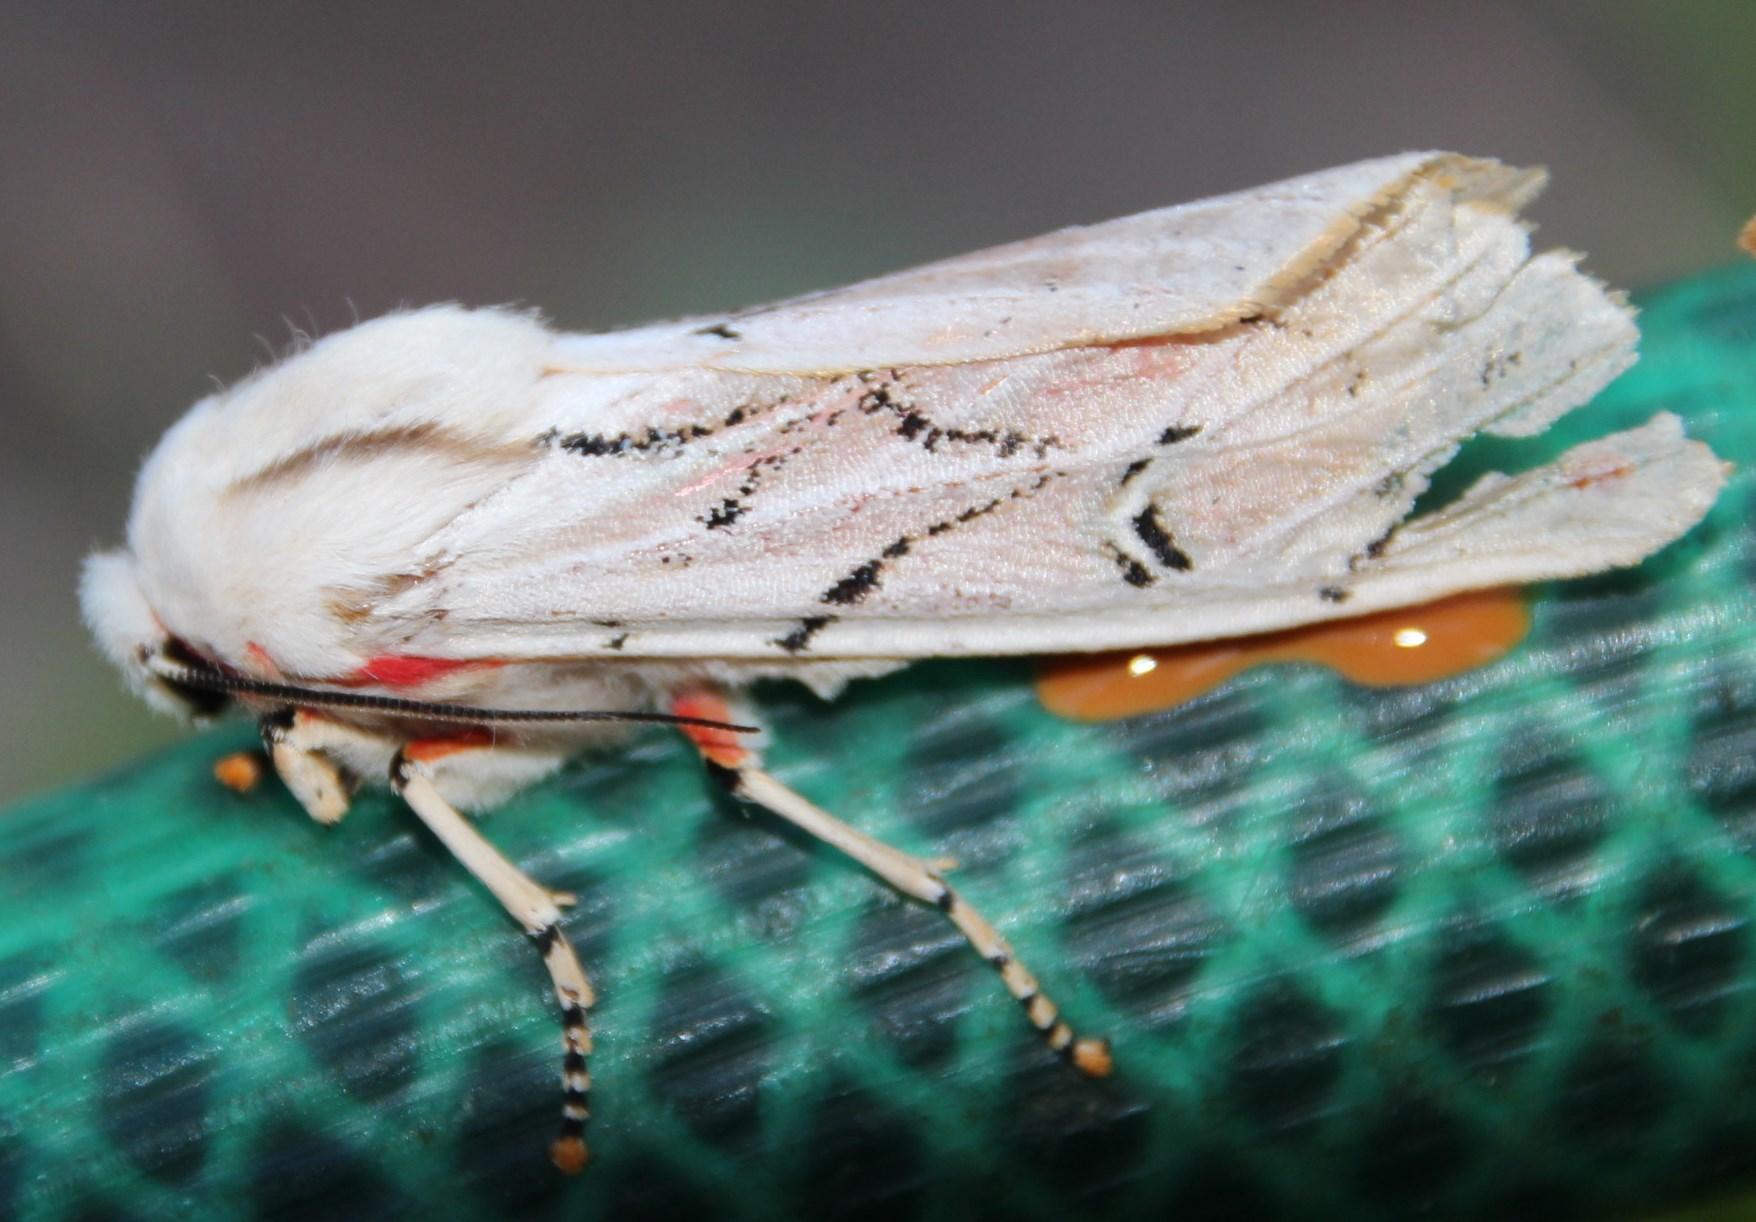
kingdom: Animalia
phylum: Arthropoda
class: Insecta
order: Lepidoptera
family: Erebidae
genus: Rhodogastria
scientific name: Rhodogastria amasis
